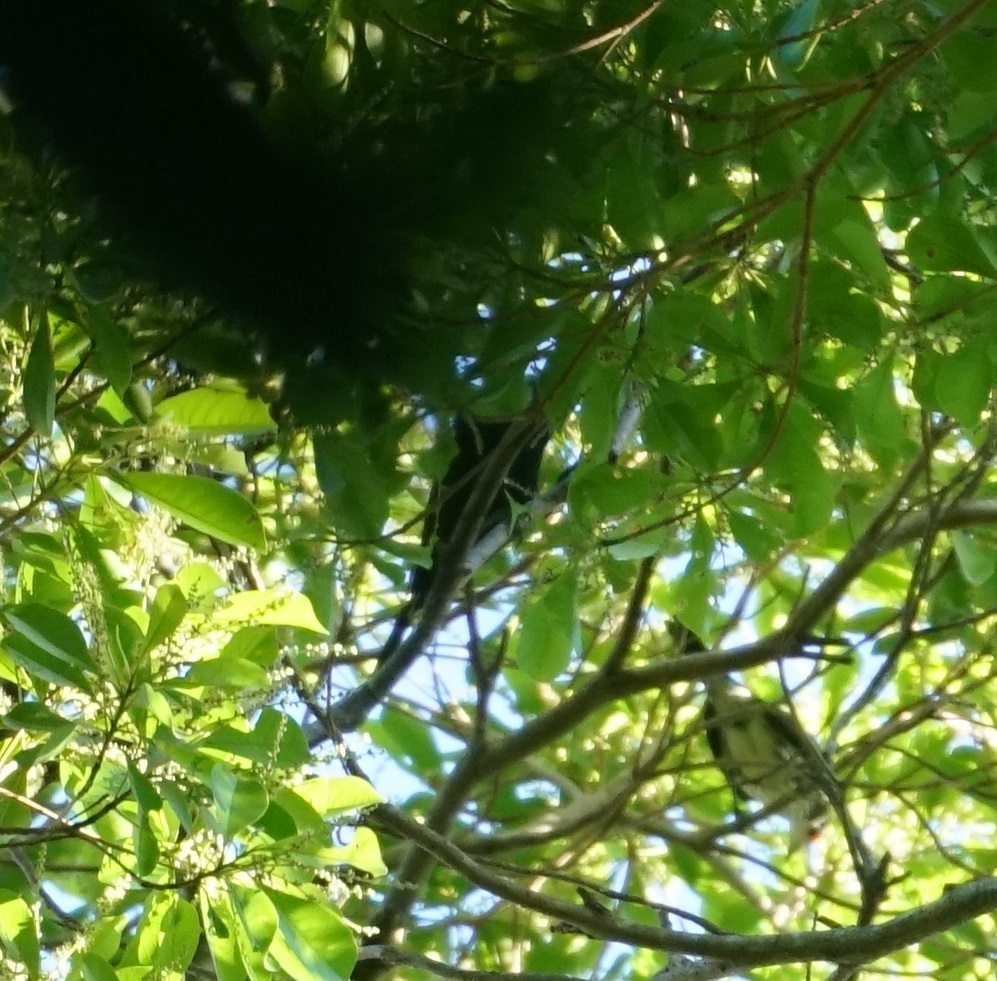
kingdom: Animalia
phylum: Chordata
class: Aves
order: Passeriformes
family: Sturnidae
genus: Aplonis
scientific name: Aplonis metallica
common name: Metallic starling
